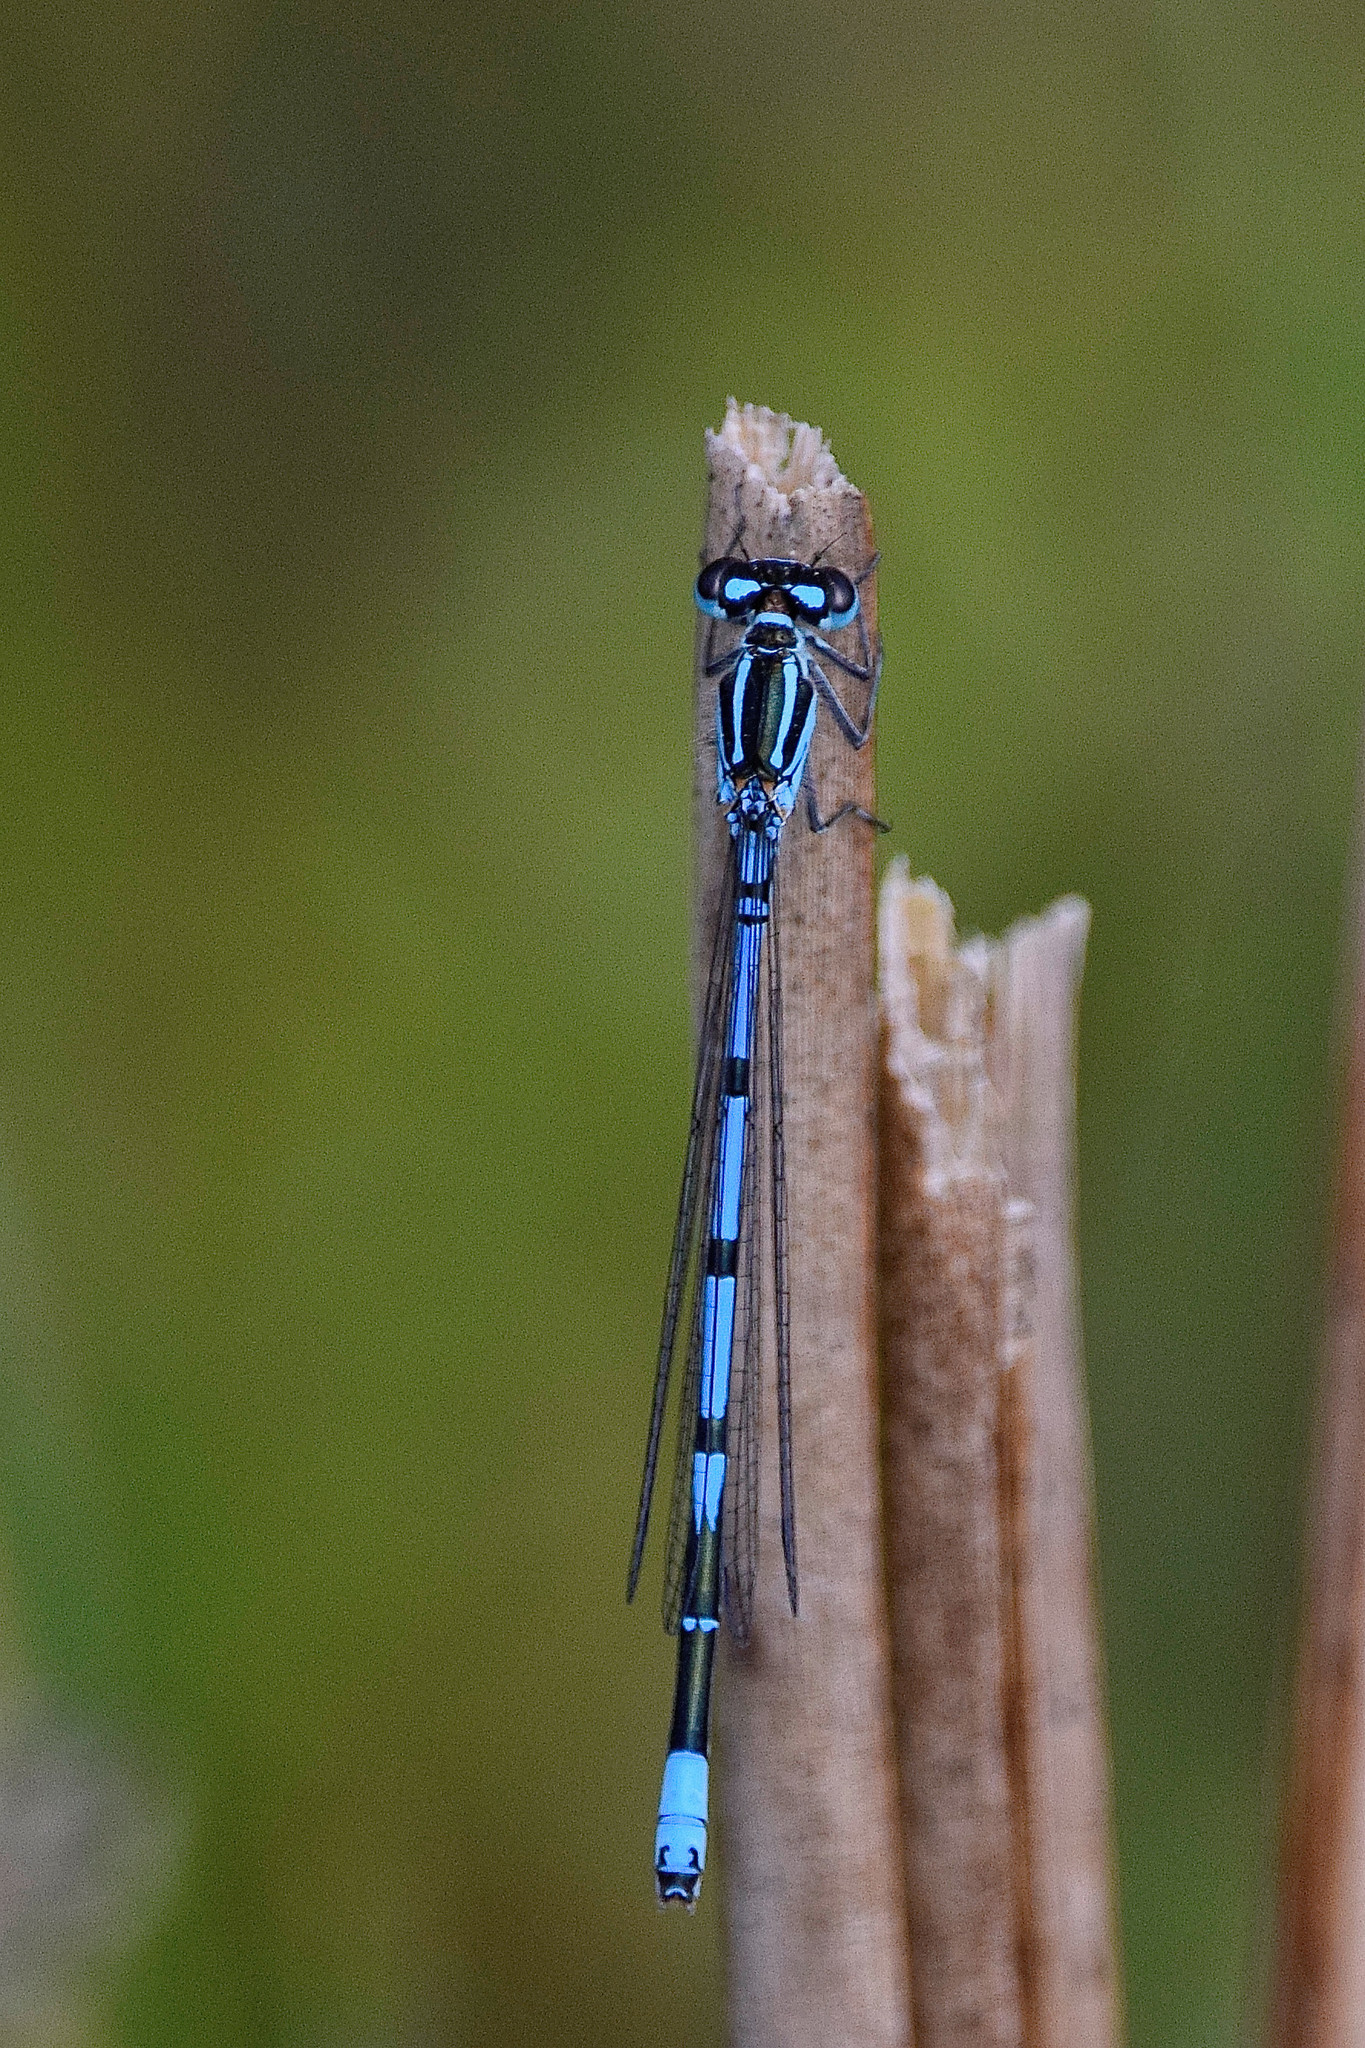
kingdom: Animalia
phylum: Arthropoda
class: Insecta
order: Odonata
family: Coenagrionidae
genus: Coenagrion
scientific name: Coenagrion puella
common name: Azure damselfly
